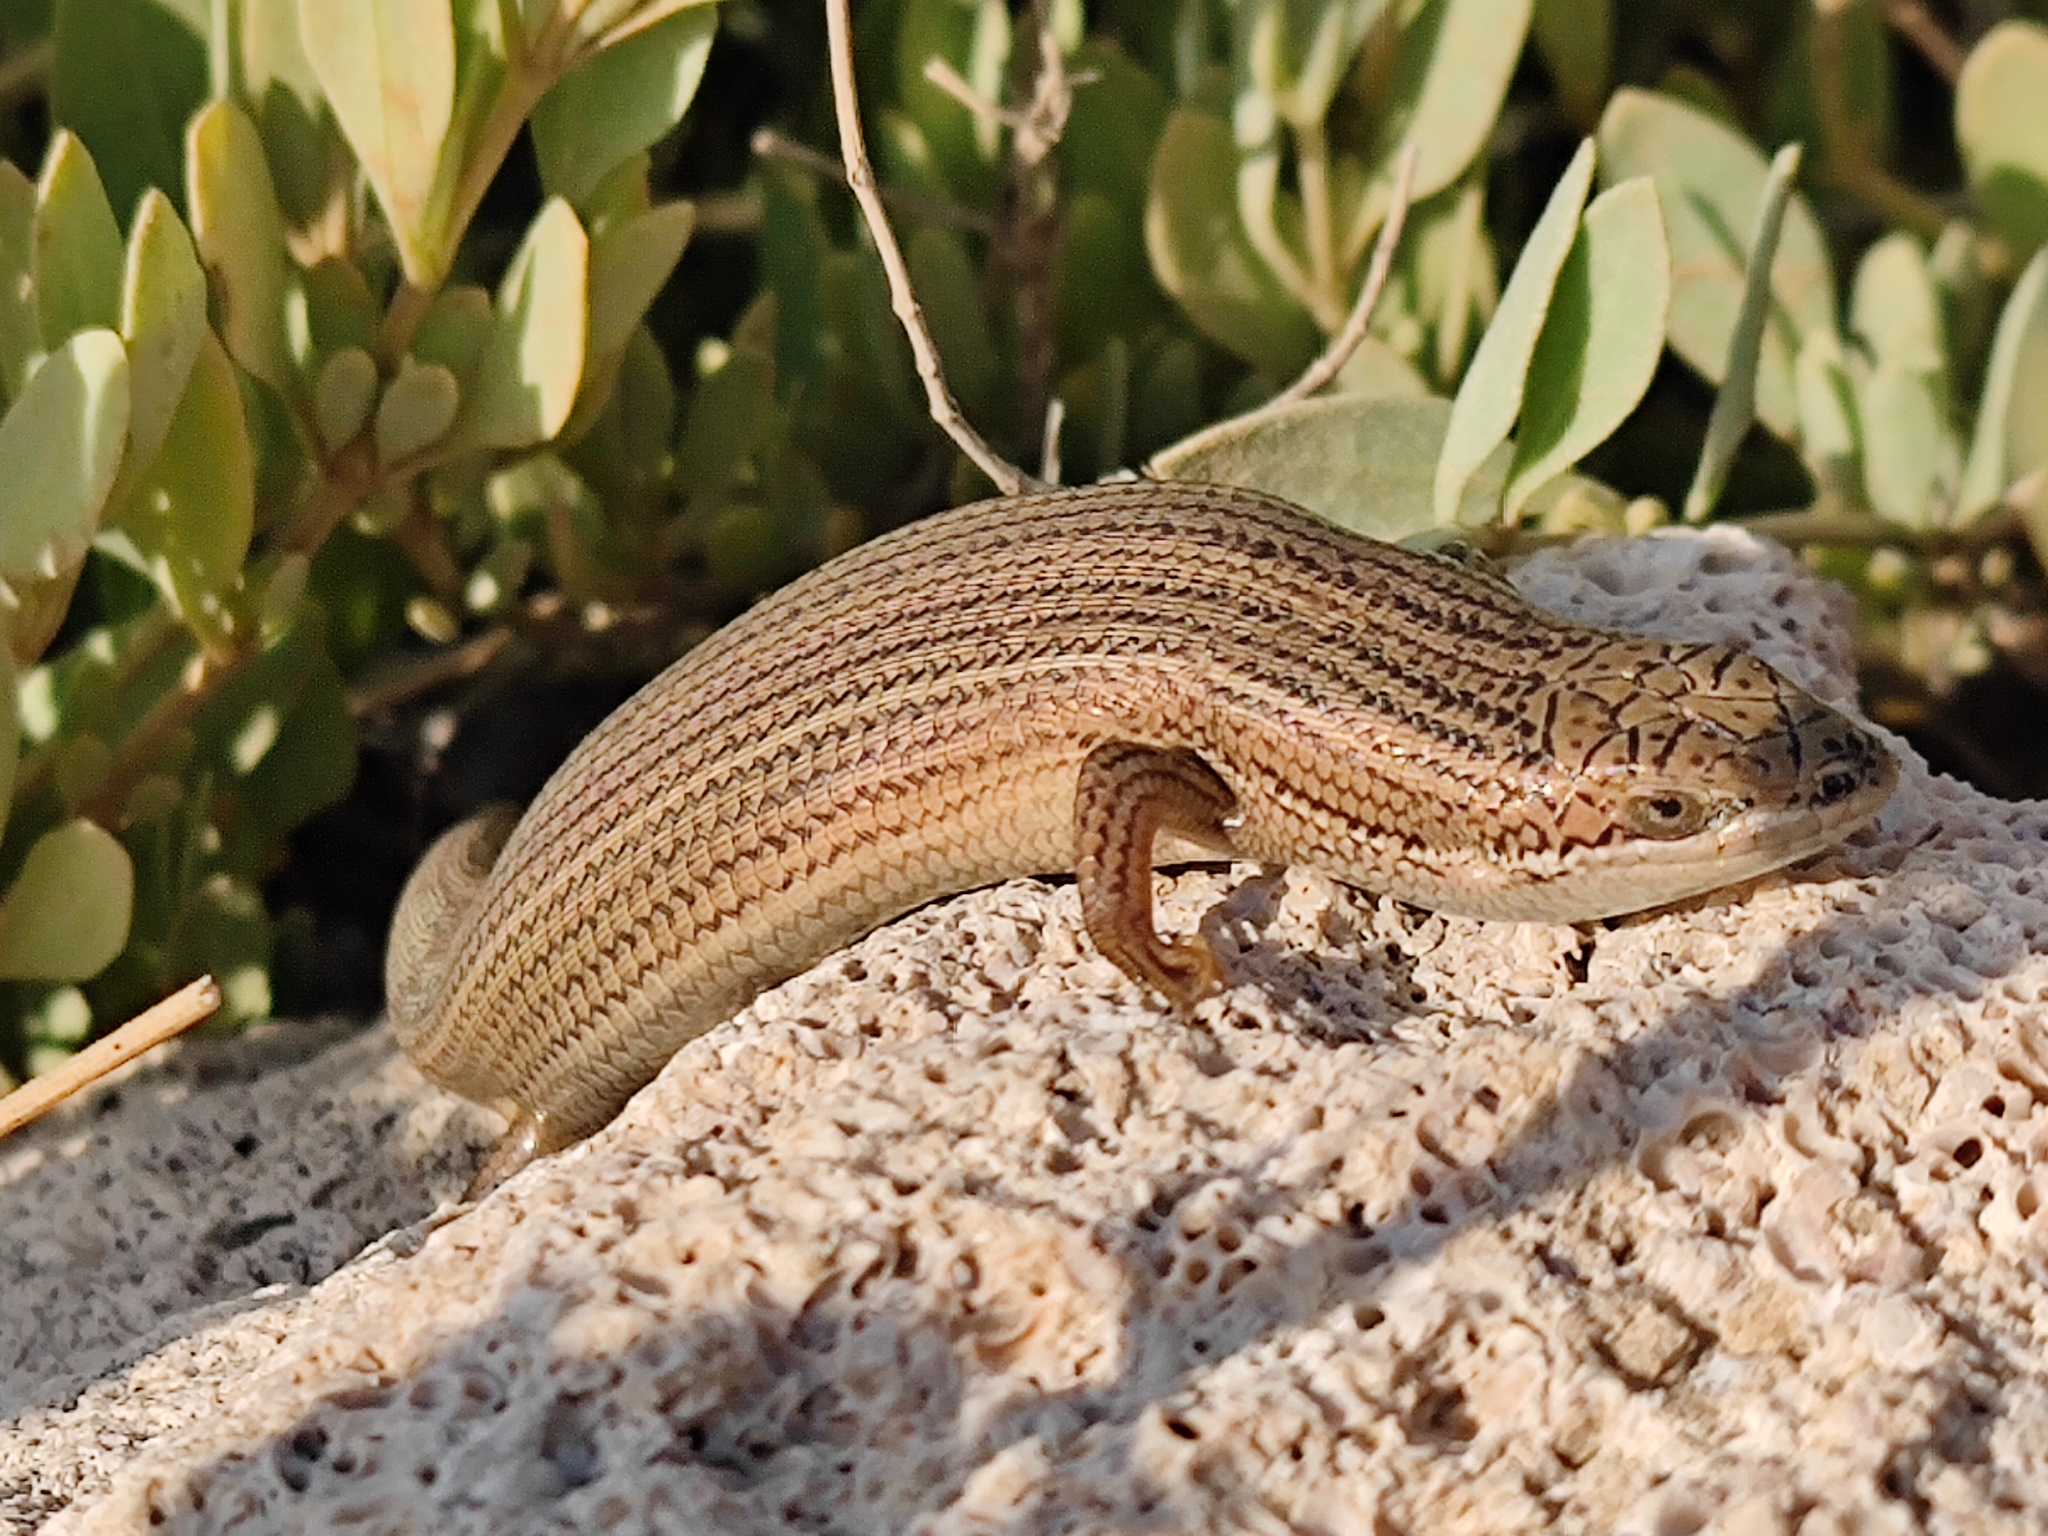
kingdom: Animalia
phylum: Chordata
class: Squamata
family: Scincidae
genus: Heremites
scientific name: Heremites vittatus
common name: Bridled mabuya
